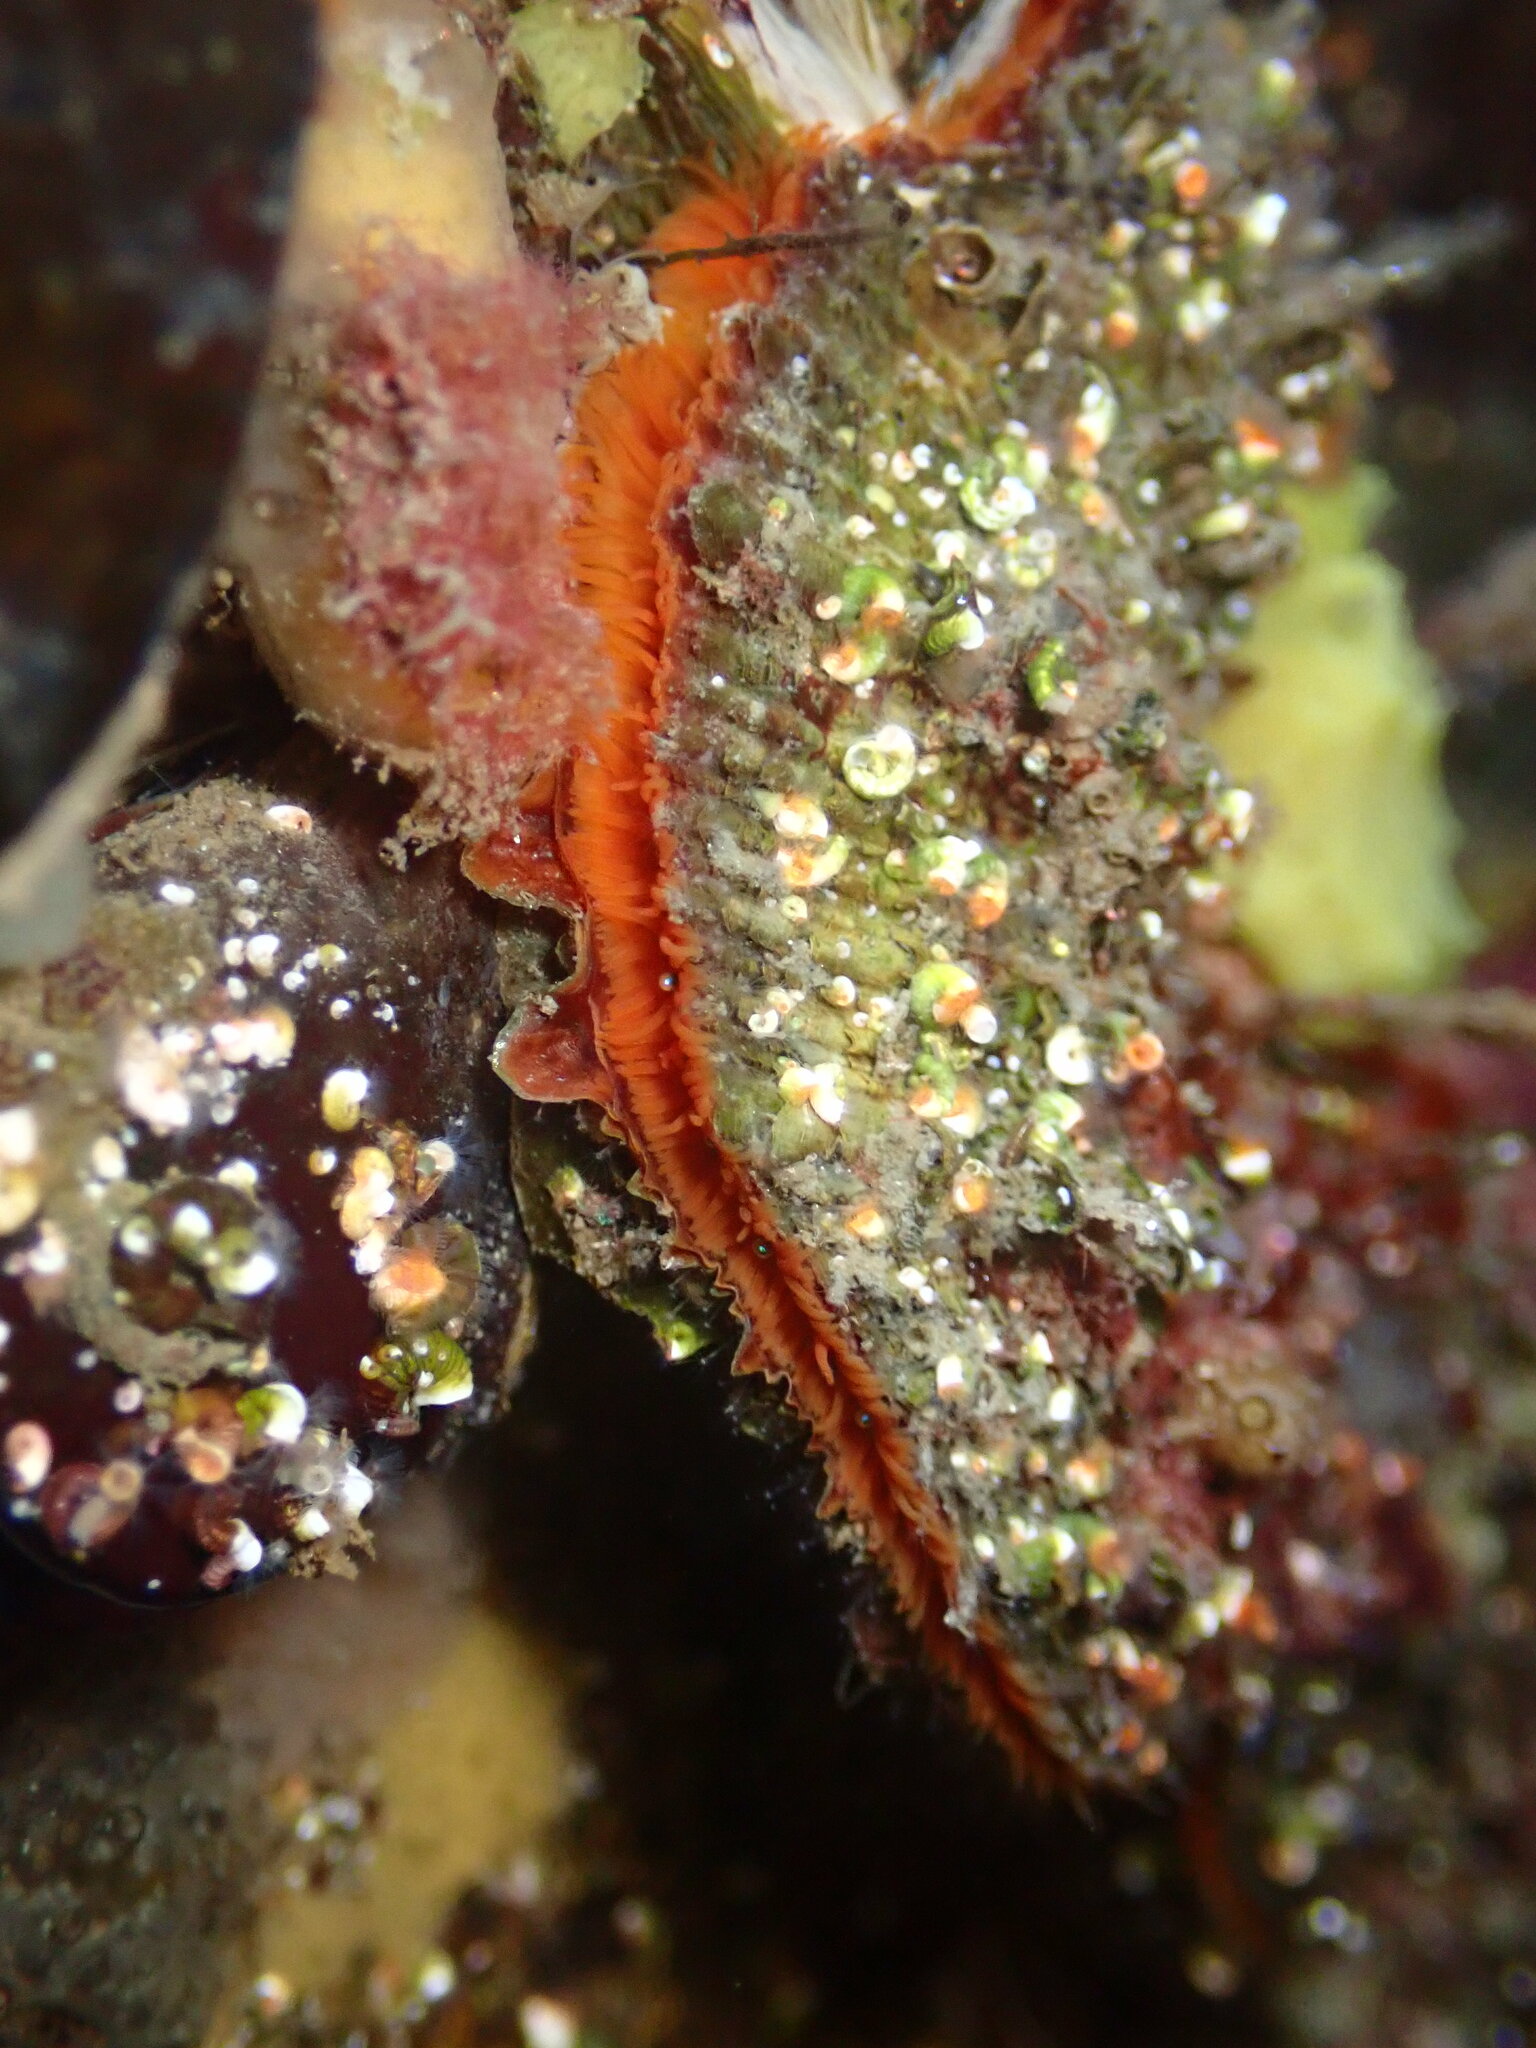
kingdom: Animalia
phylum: Mollusca
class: Bivalvia
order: Pectinida
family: Pectinidae
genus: Crassadoma
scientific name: Crassadoma gigantea
